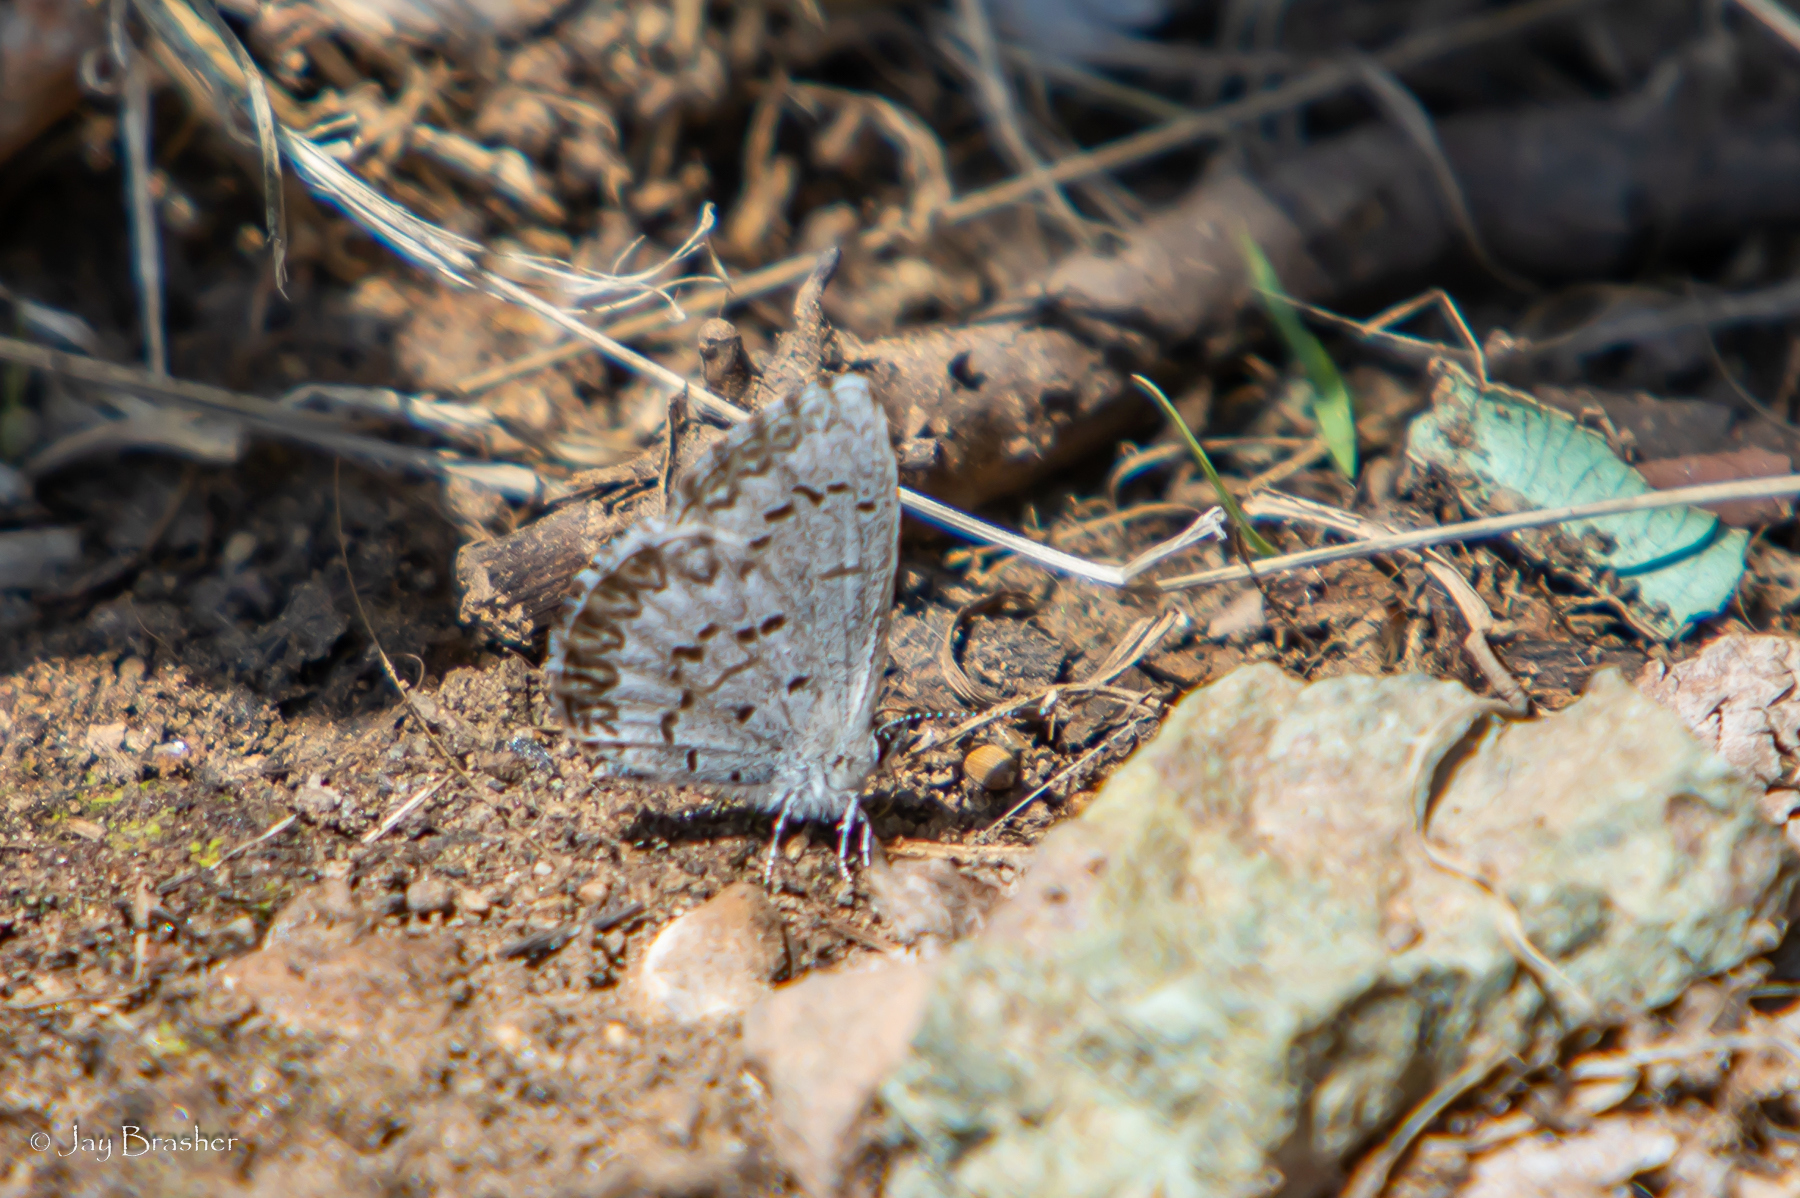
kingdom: Animalia
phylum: Arthropoda
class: Insecta
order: Lepidoptera
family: Lycaenidae
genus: Celastrina
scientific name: Celastrina lucia
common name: Lucia azure
